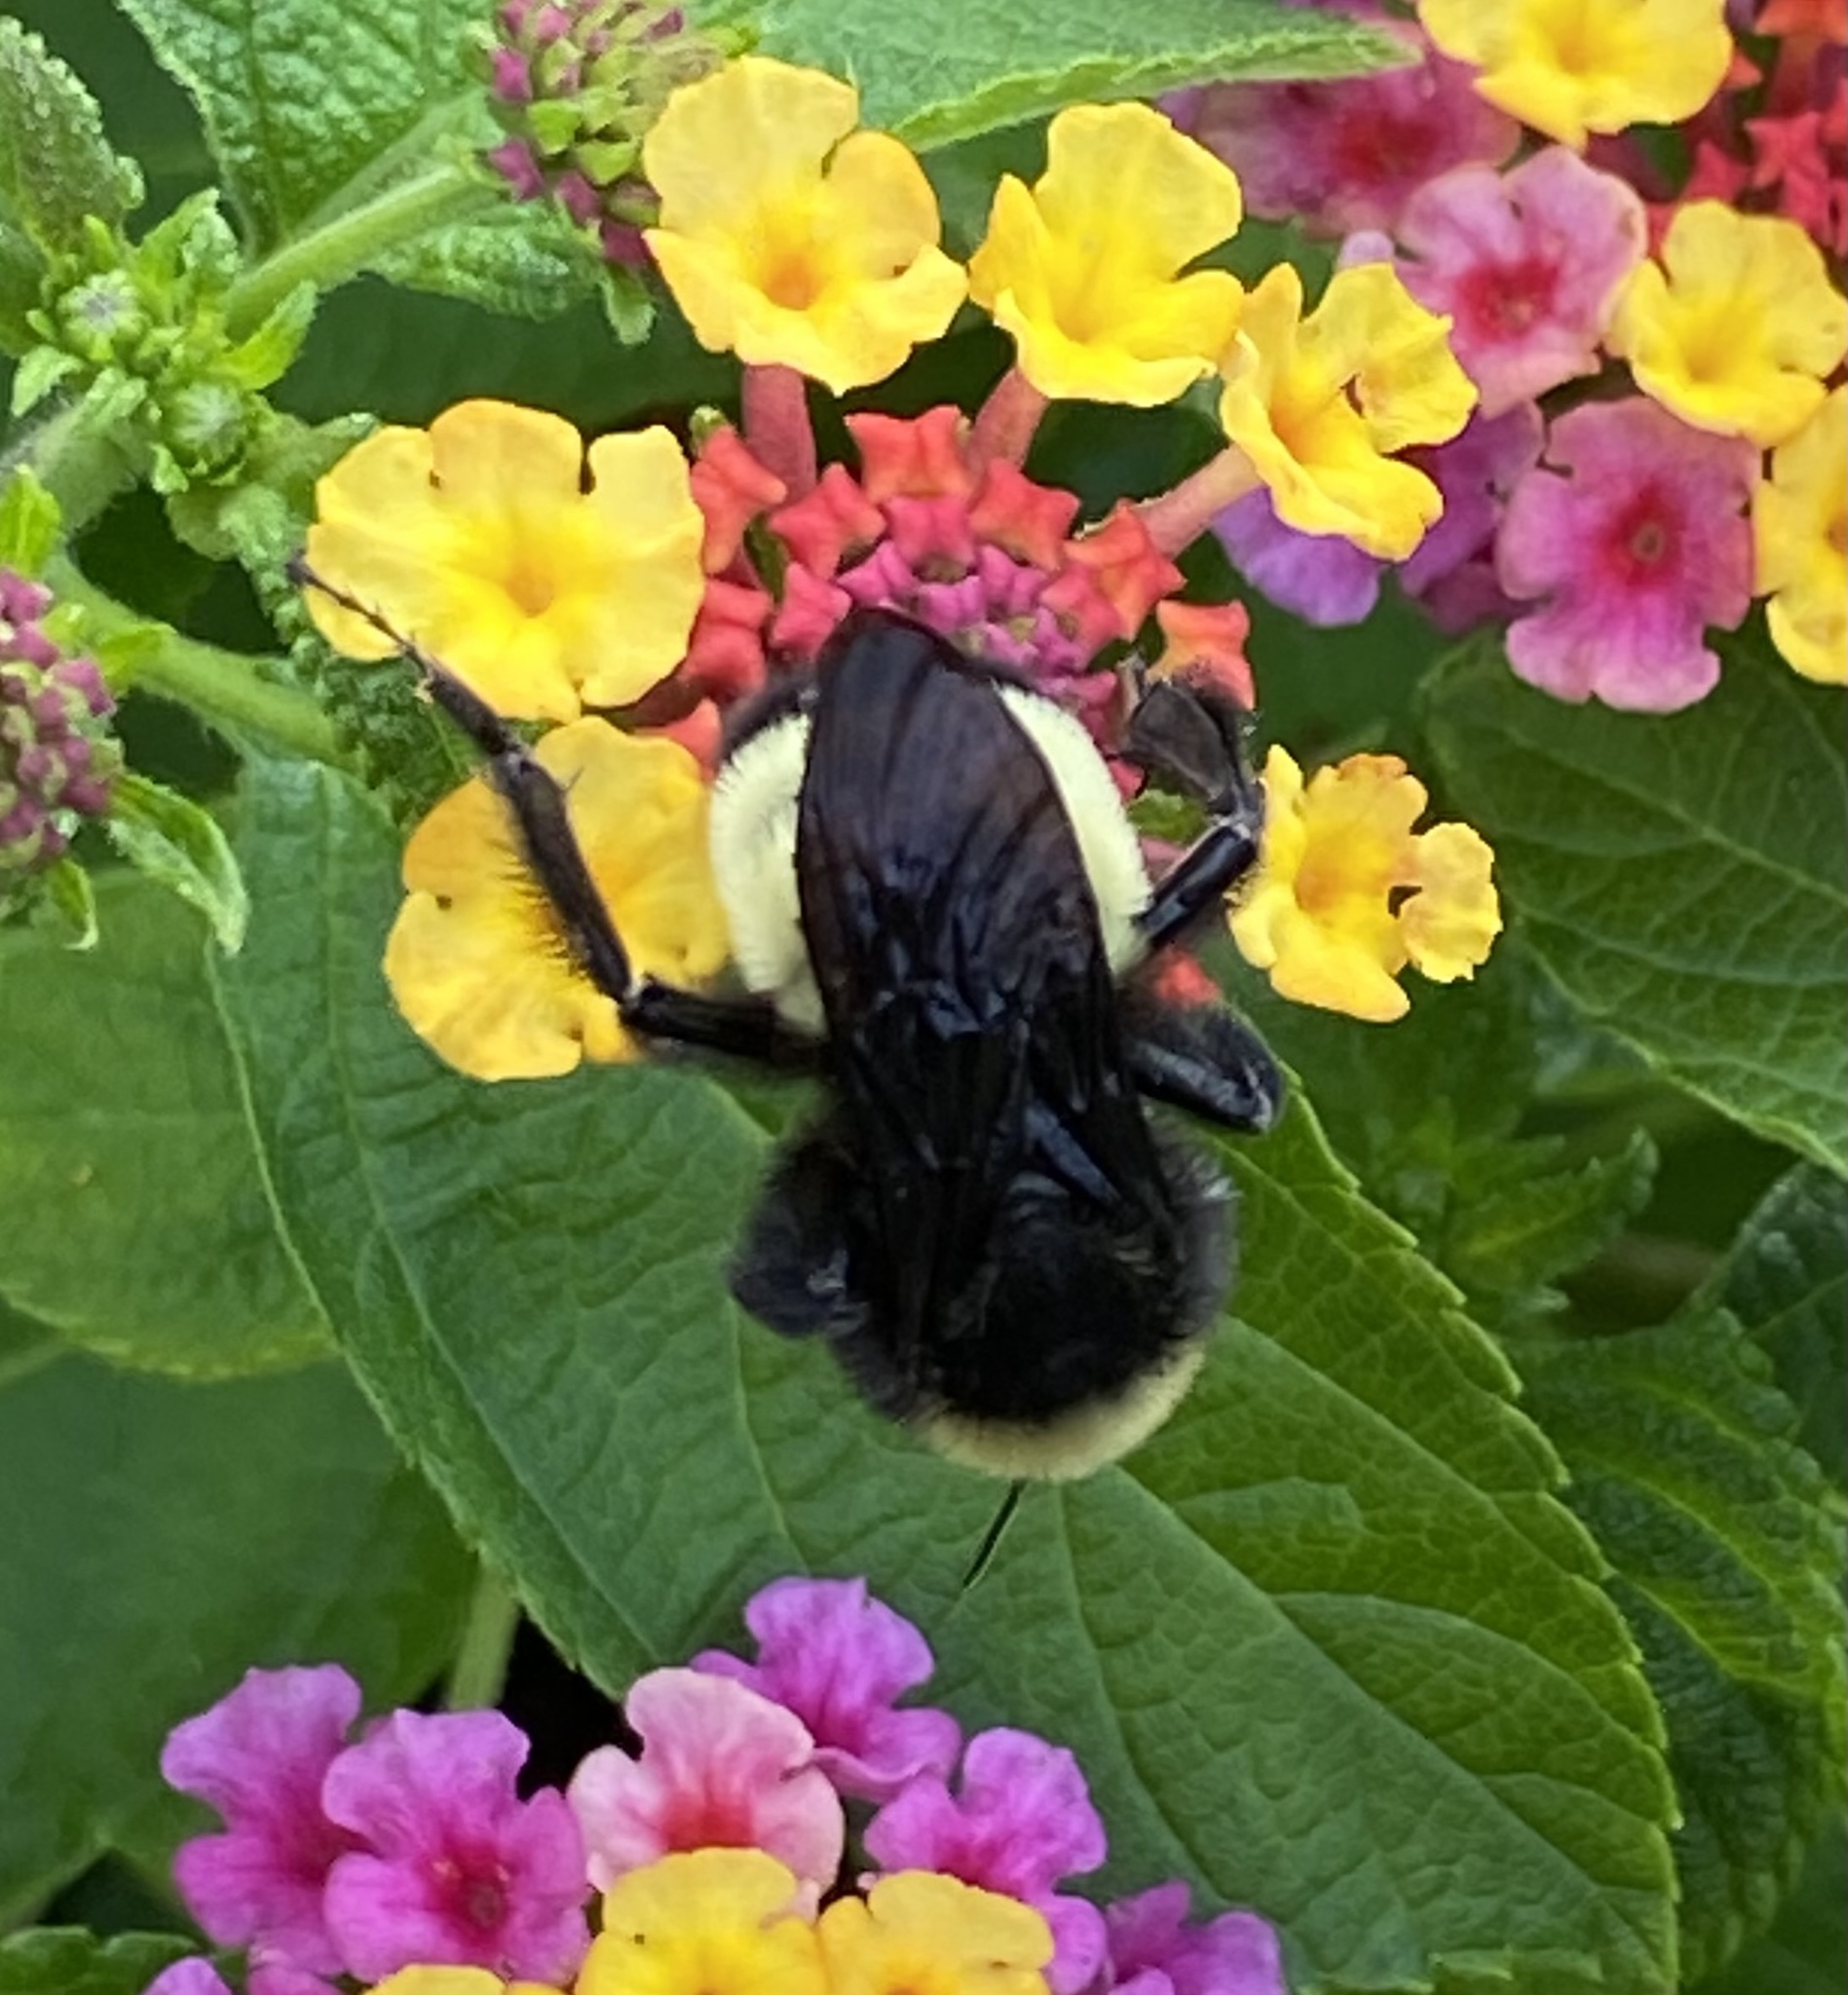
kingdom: Animalia
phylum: Arthropoda
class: Insecta
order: Hymenoptera
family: Apidae
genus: Bombus
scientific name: Bombus pensylvanicus
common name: Bumble bee
